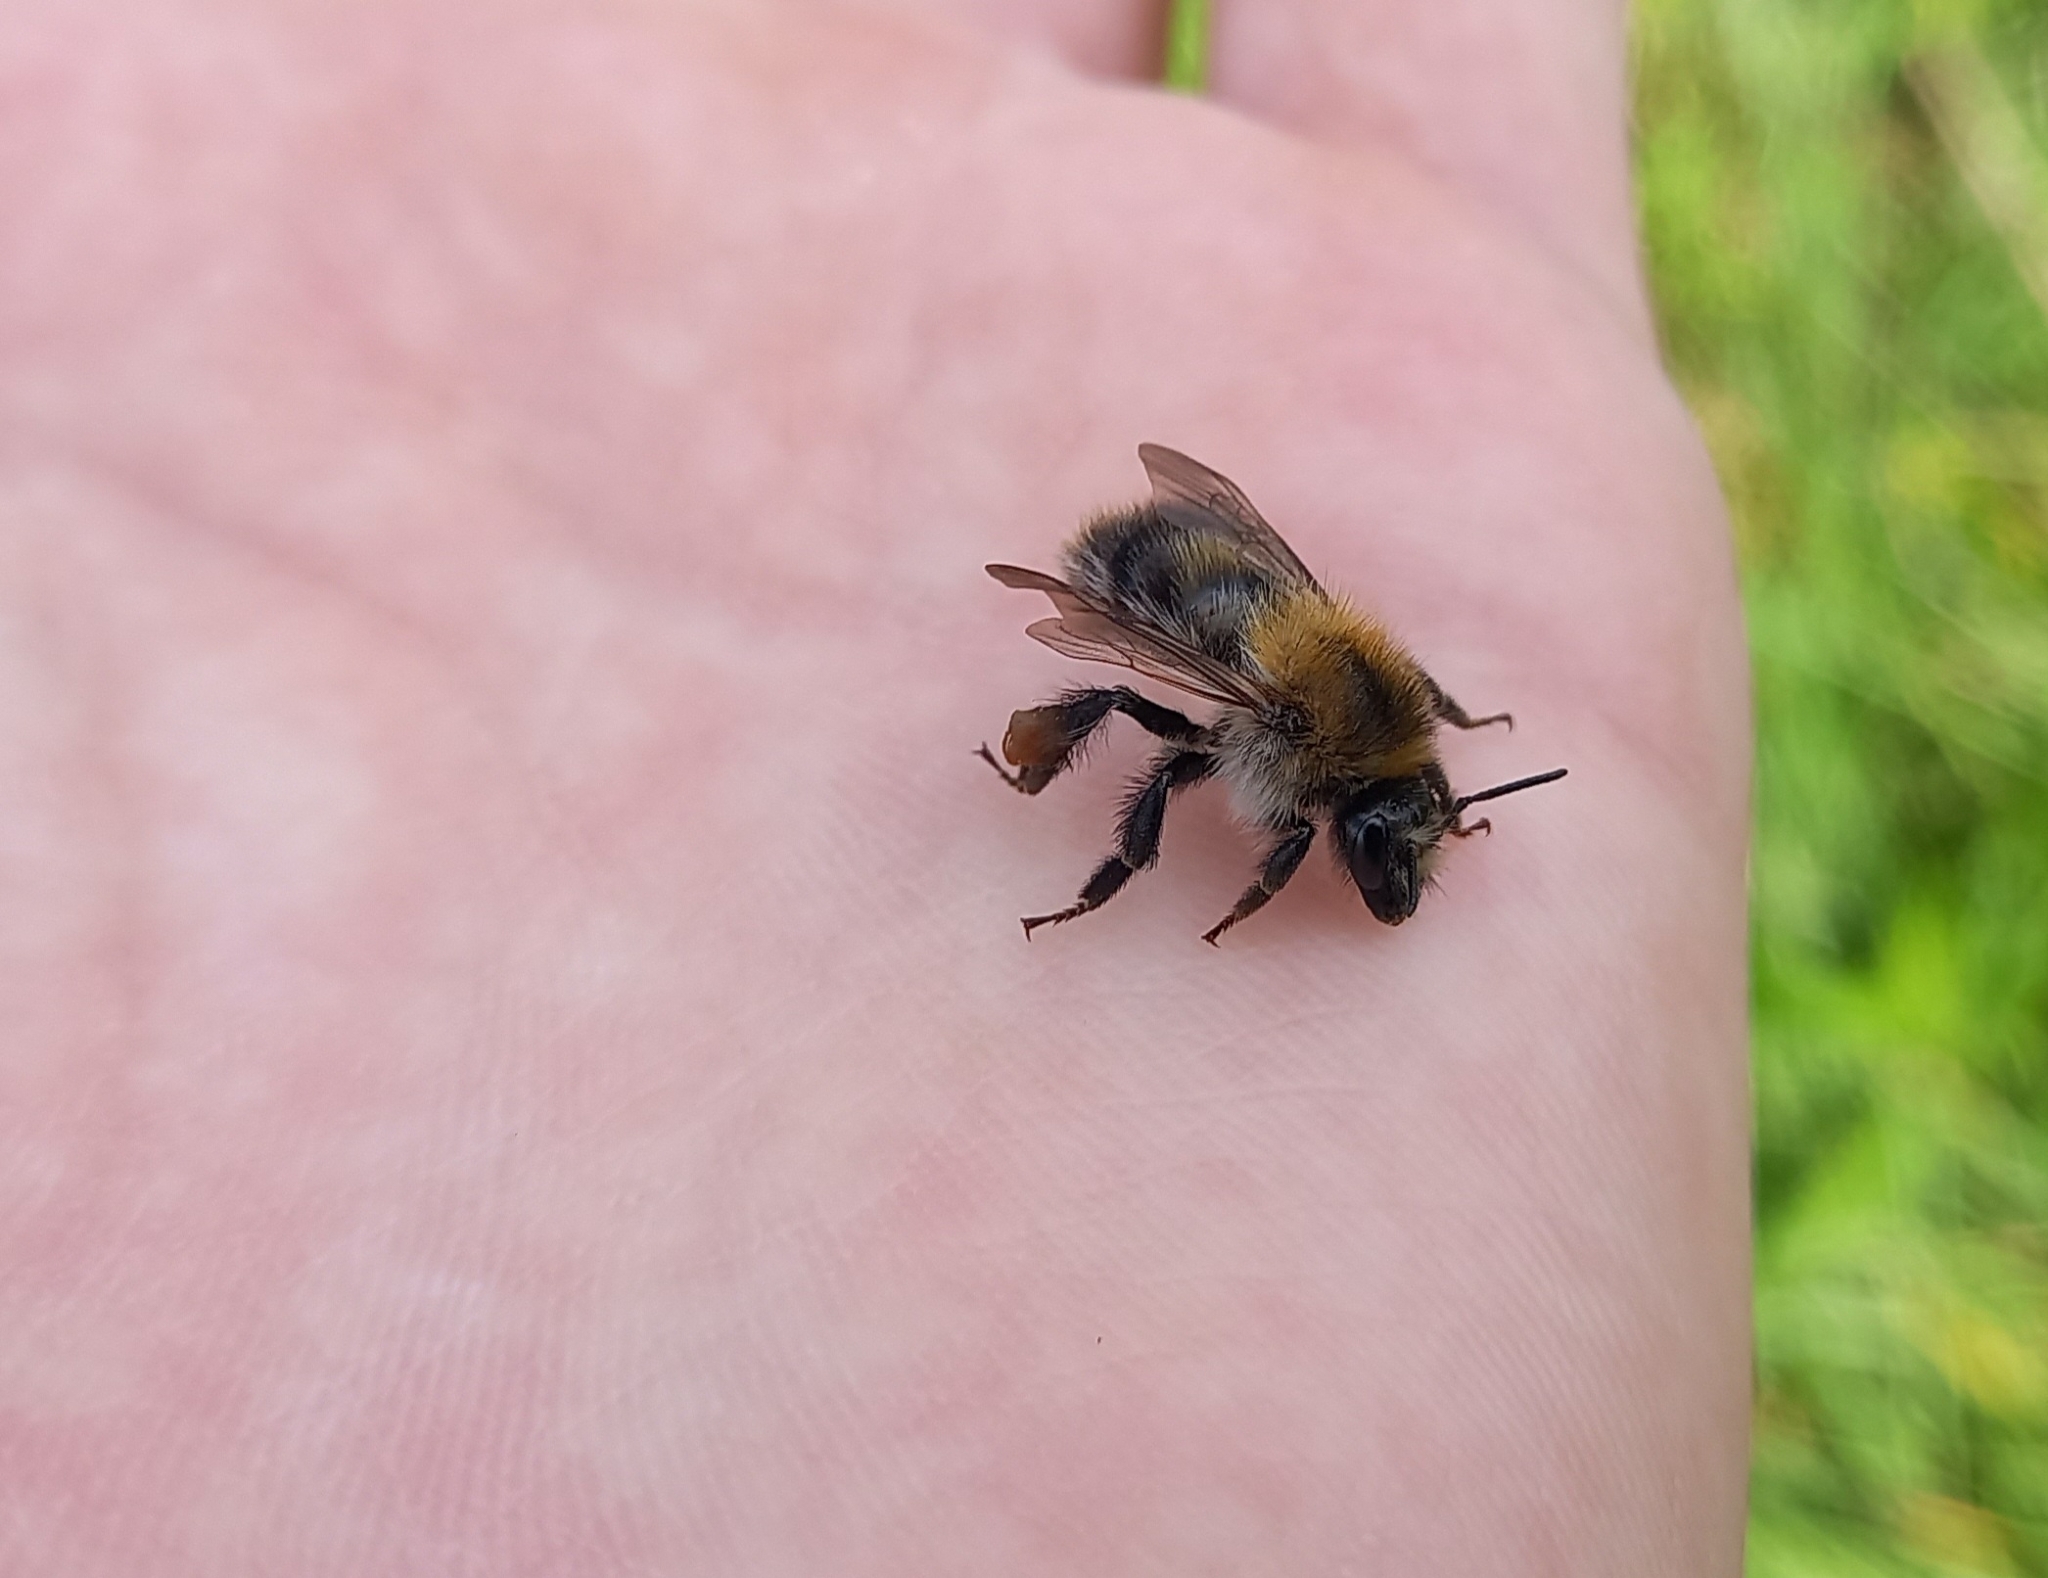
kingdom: Animalia
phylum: Arthropoda
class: Insecta
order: Hymenoptera
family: Apidae
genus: Bombus
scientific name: Bombus pascuorum
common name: Common carder bee
